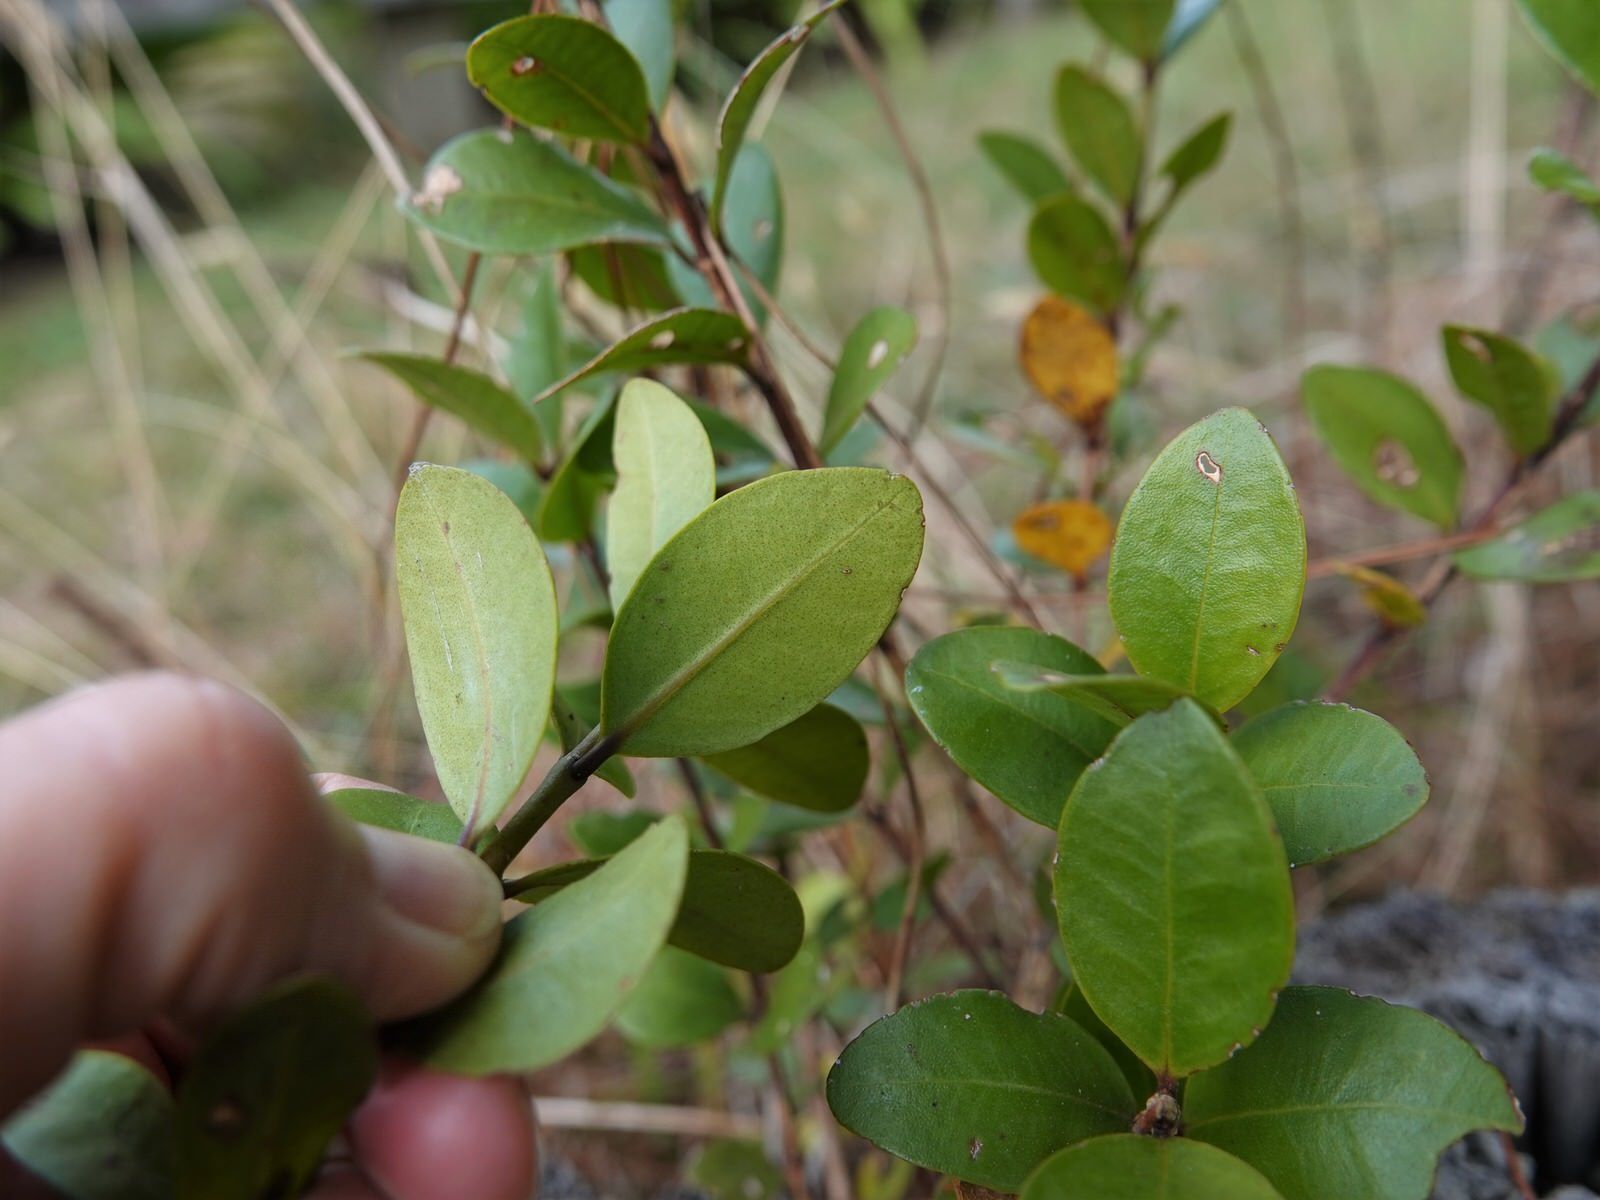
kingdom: Plantae
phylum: Tracheophyta
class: Magnoliopsida
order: Myrtales
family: Myrtaceae
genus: Metrosideros
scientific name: Metrosideros fulgens
